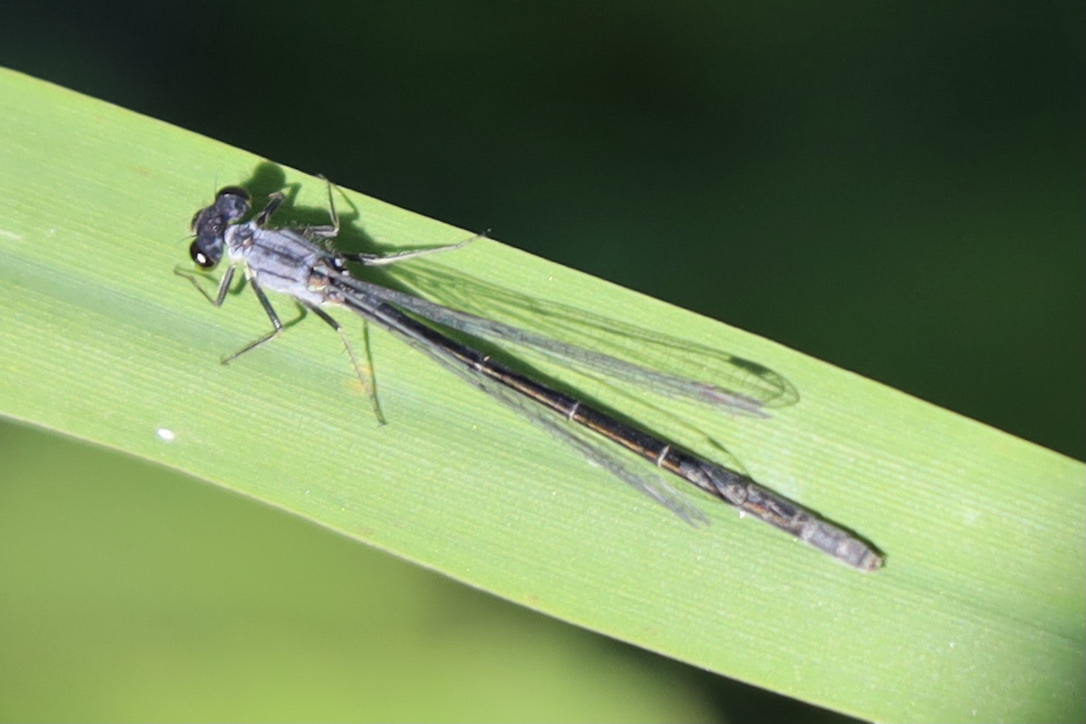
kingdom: Animalia
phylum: Arthropoda
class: Insecta
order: Odonata
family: Coenagrionidae
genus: Ischnura
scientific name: Ischnura cervula
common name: Pacific forktail
